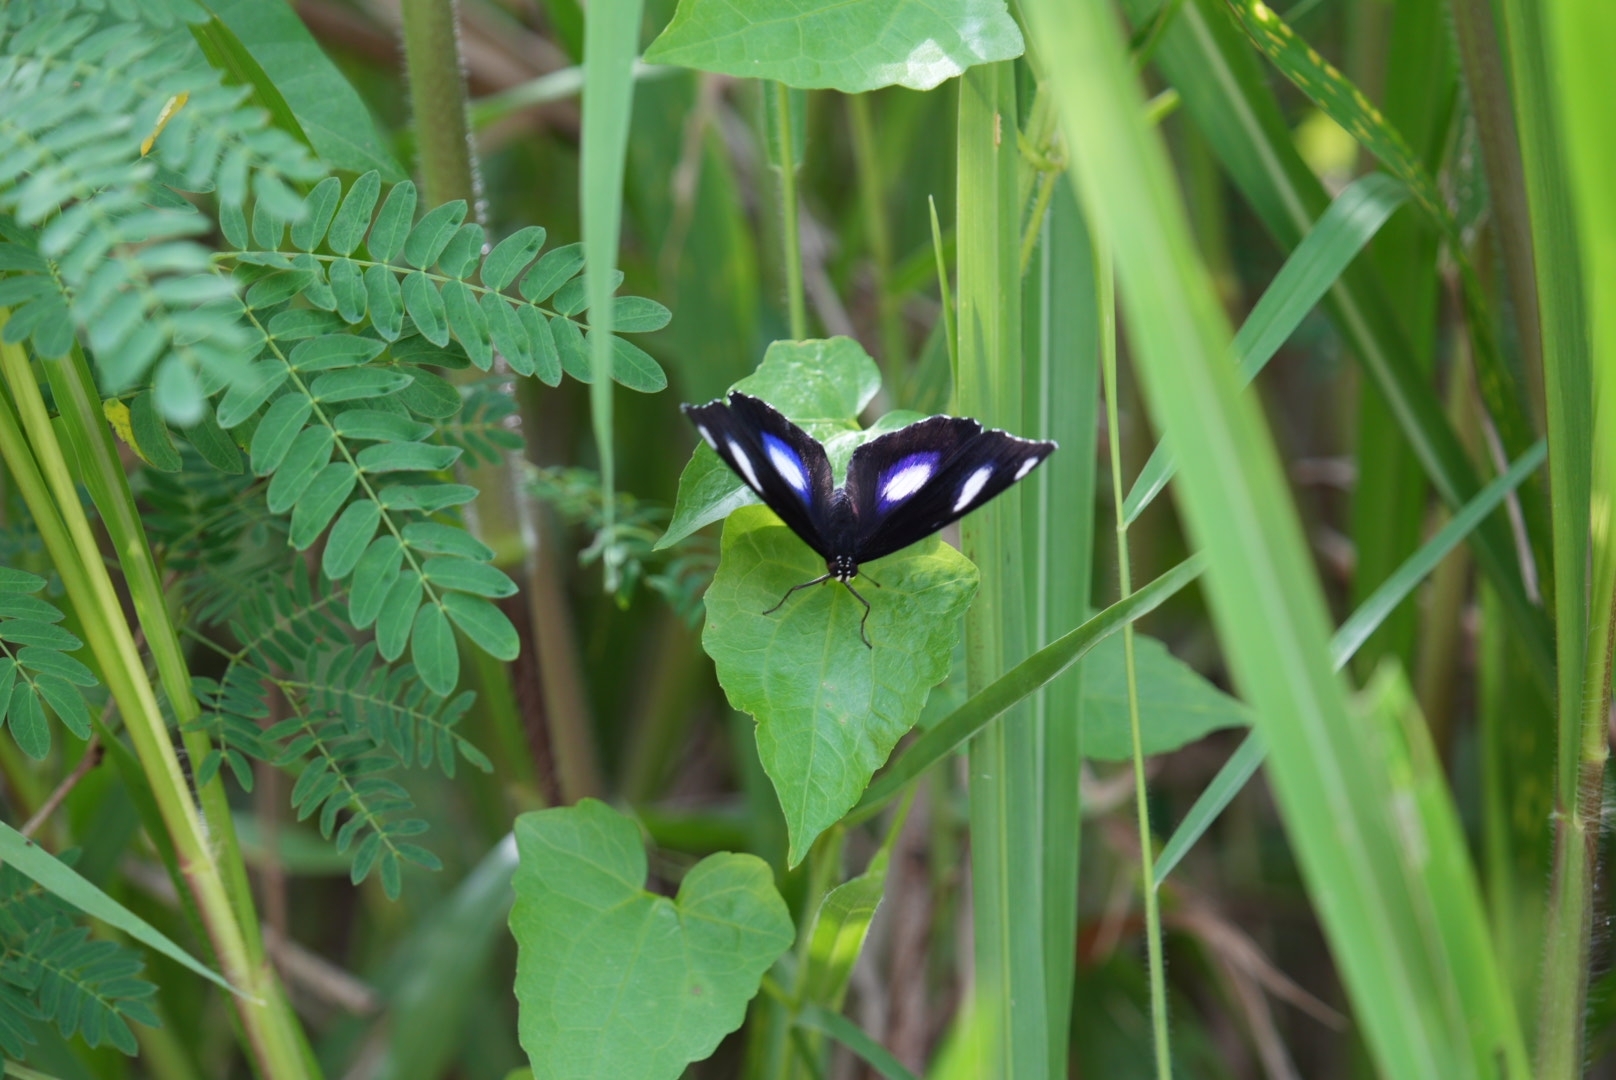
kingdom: Animalia
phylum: Arthropoda
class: Insecta
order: Lepidoptera
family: Nymphalidae
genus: Hypolimnas
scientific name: Hypolimnas bolina
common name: Great eggfly
